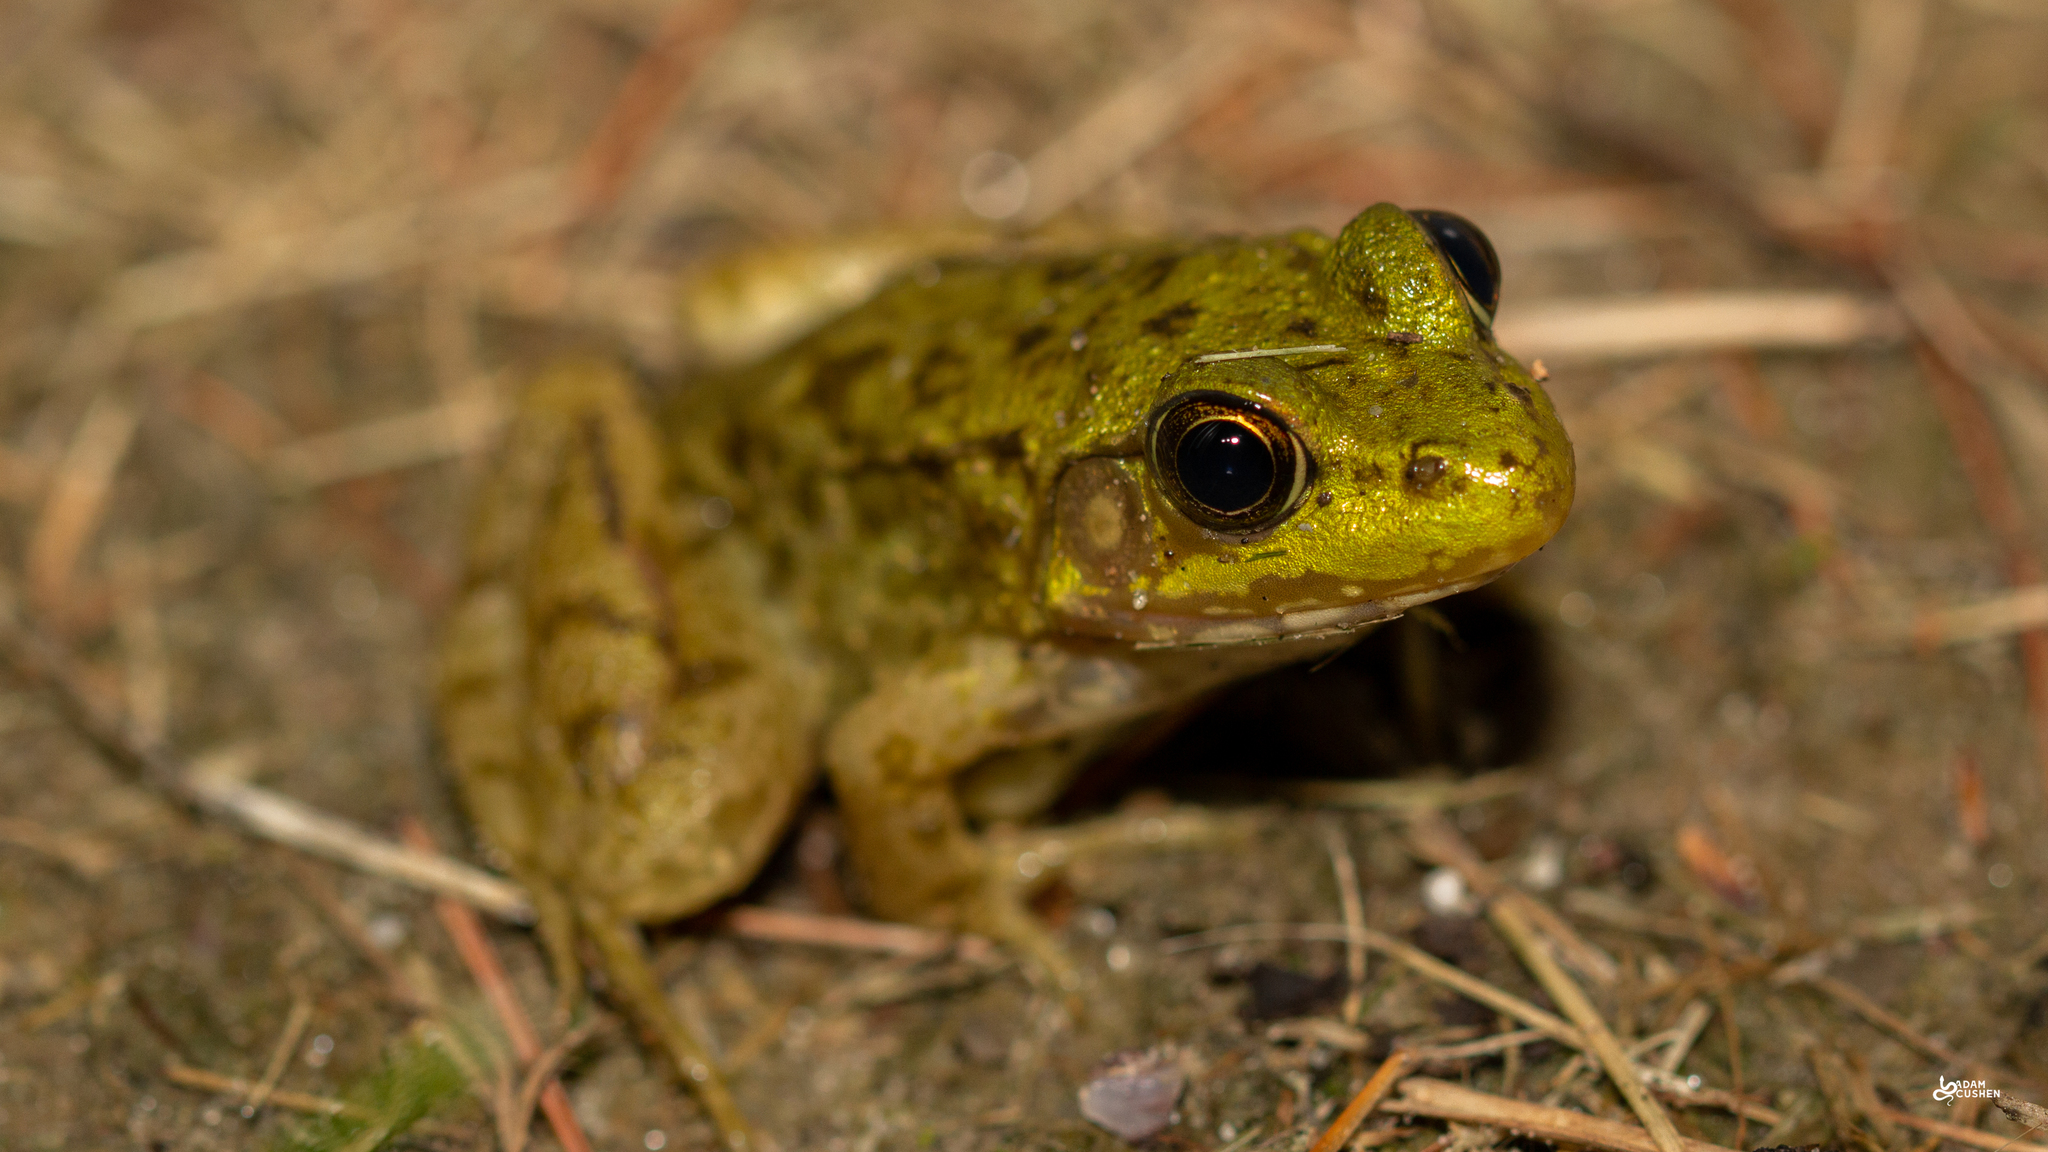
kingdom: Animalia
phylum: Chordata
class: Amphibia
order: Anura
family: Ranidae
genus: Lithobates
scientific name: Lithobates clamitans
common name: Green frog
